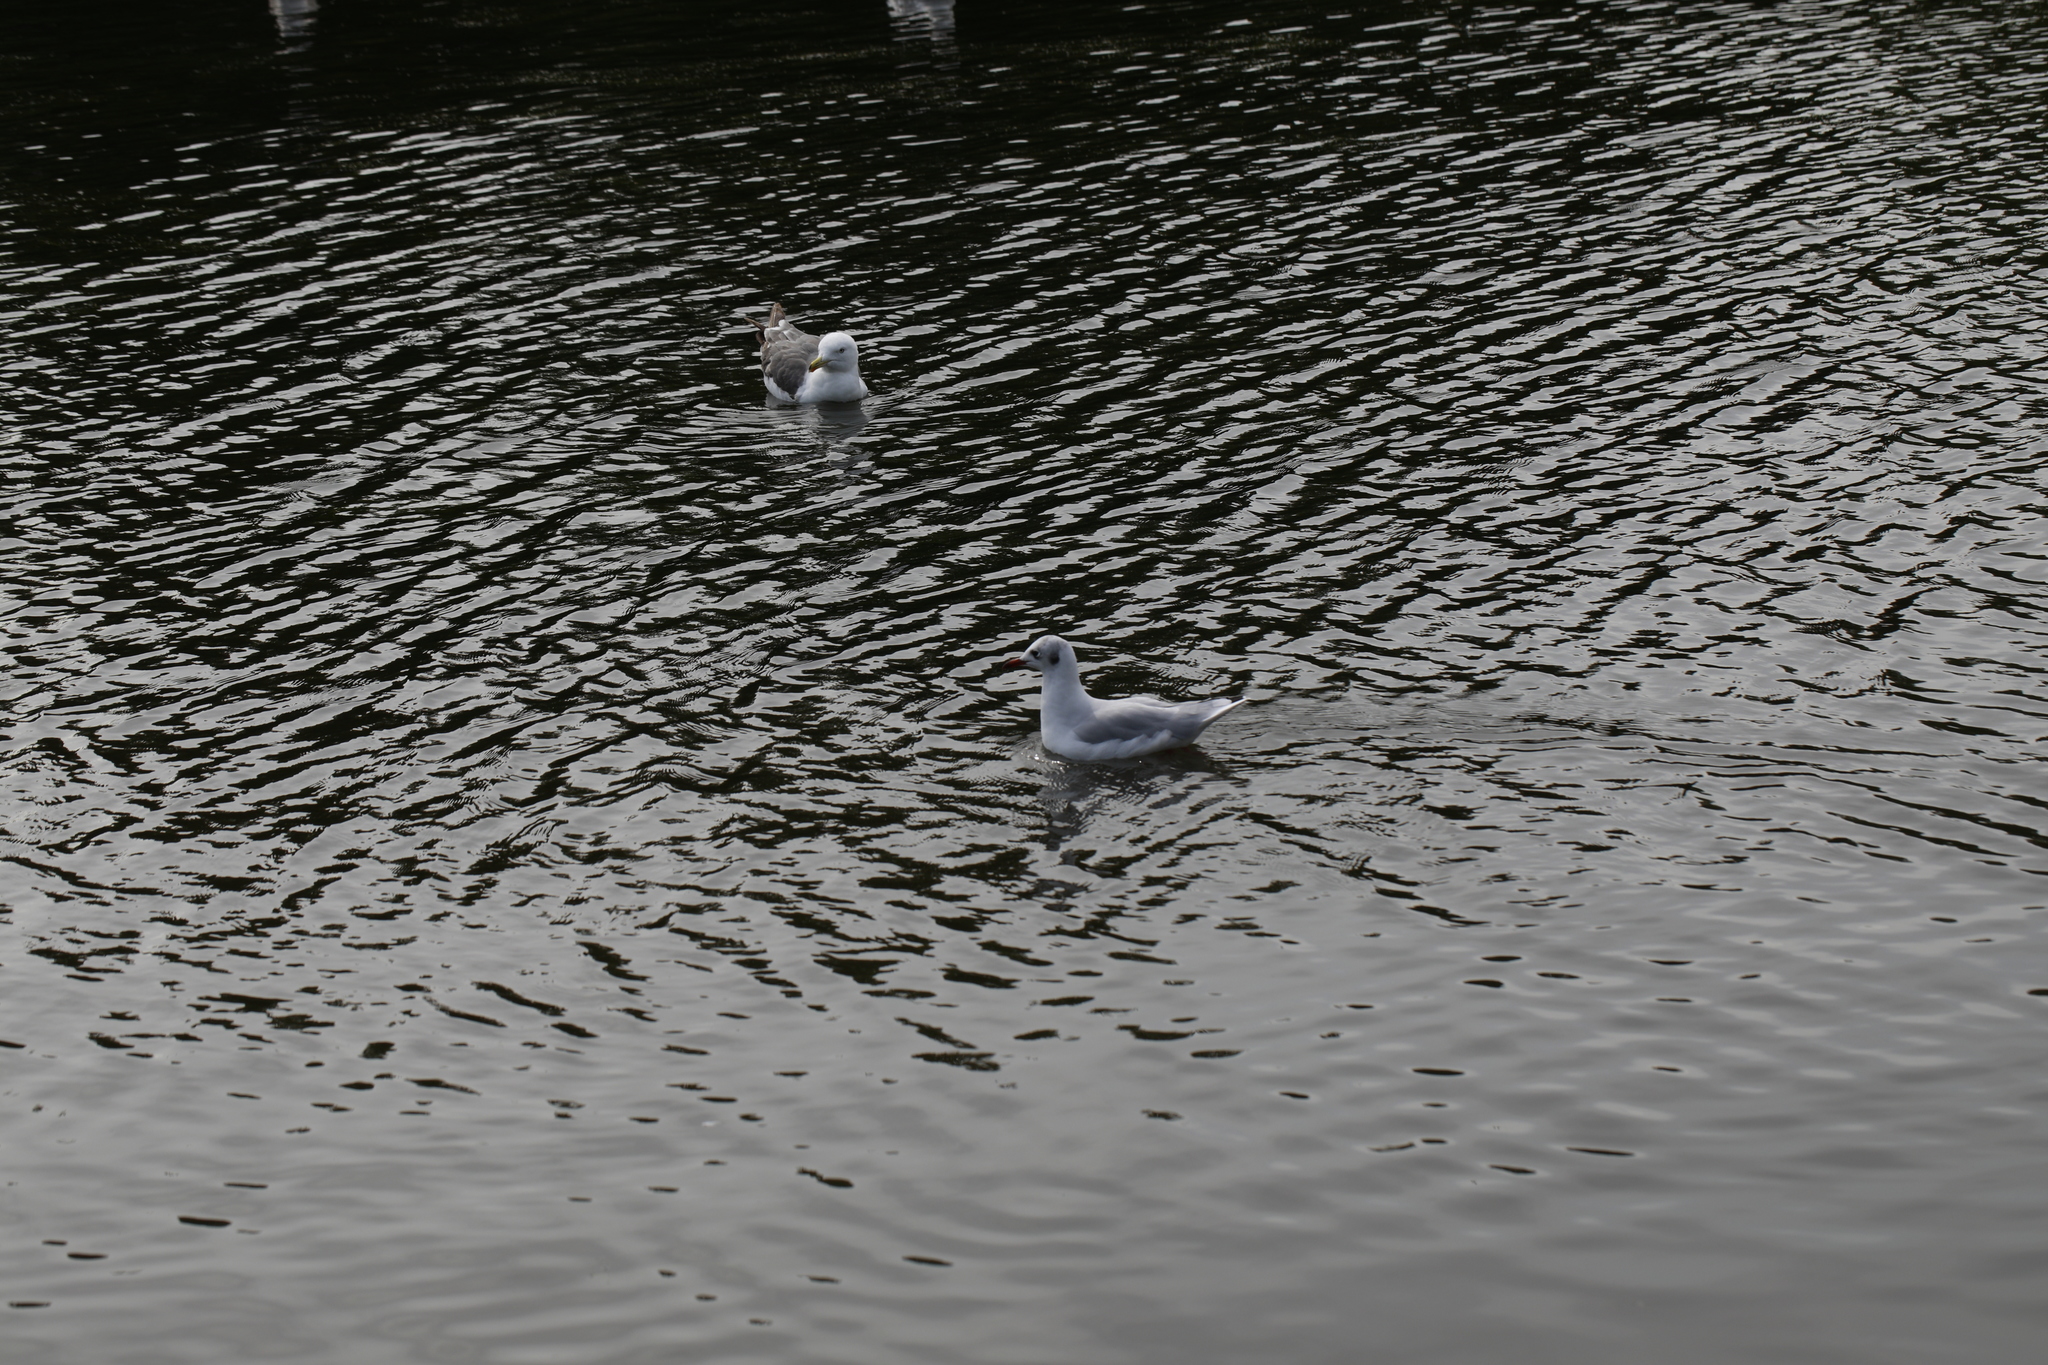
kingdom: Animalia
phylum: Chordata
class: Aves
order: Charadriiformes
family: Laridae
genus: Chroicocephalus
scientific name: Chroicocephalus ridibundus
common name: Black-headed gull
